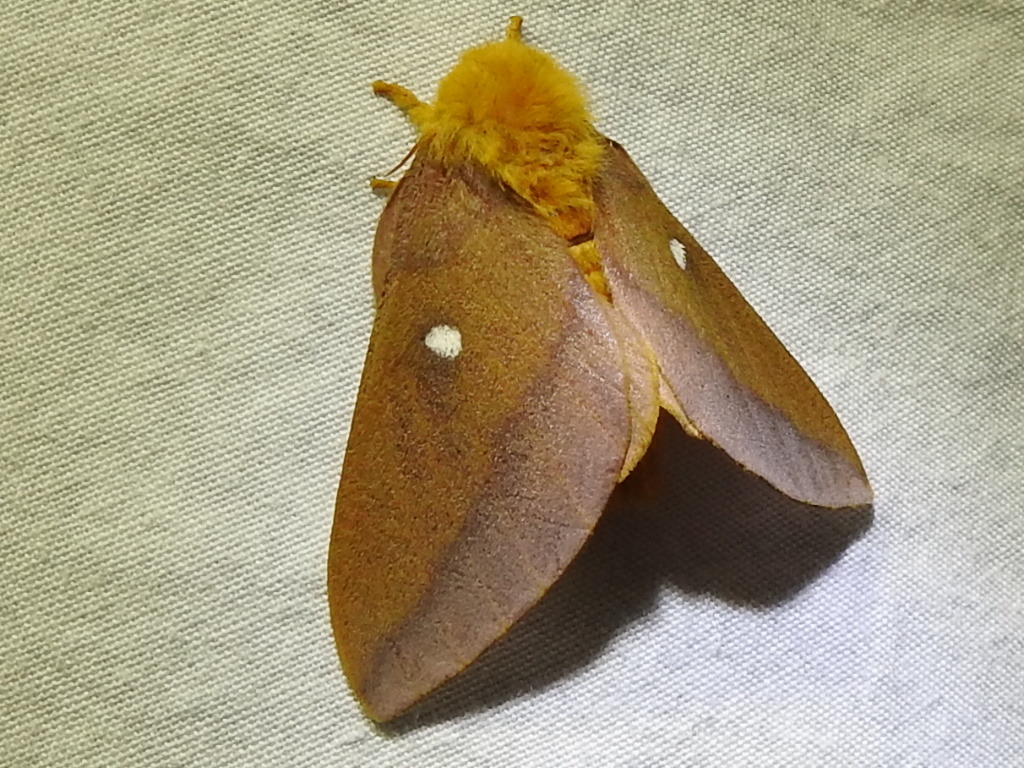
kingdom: Animalia
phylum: Arthropoda
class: Insecta
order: Lepidoptera
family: Saturniidae
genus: Anisota
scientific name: Anisota virginiensis
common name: Pink striped oakworm moth
